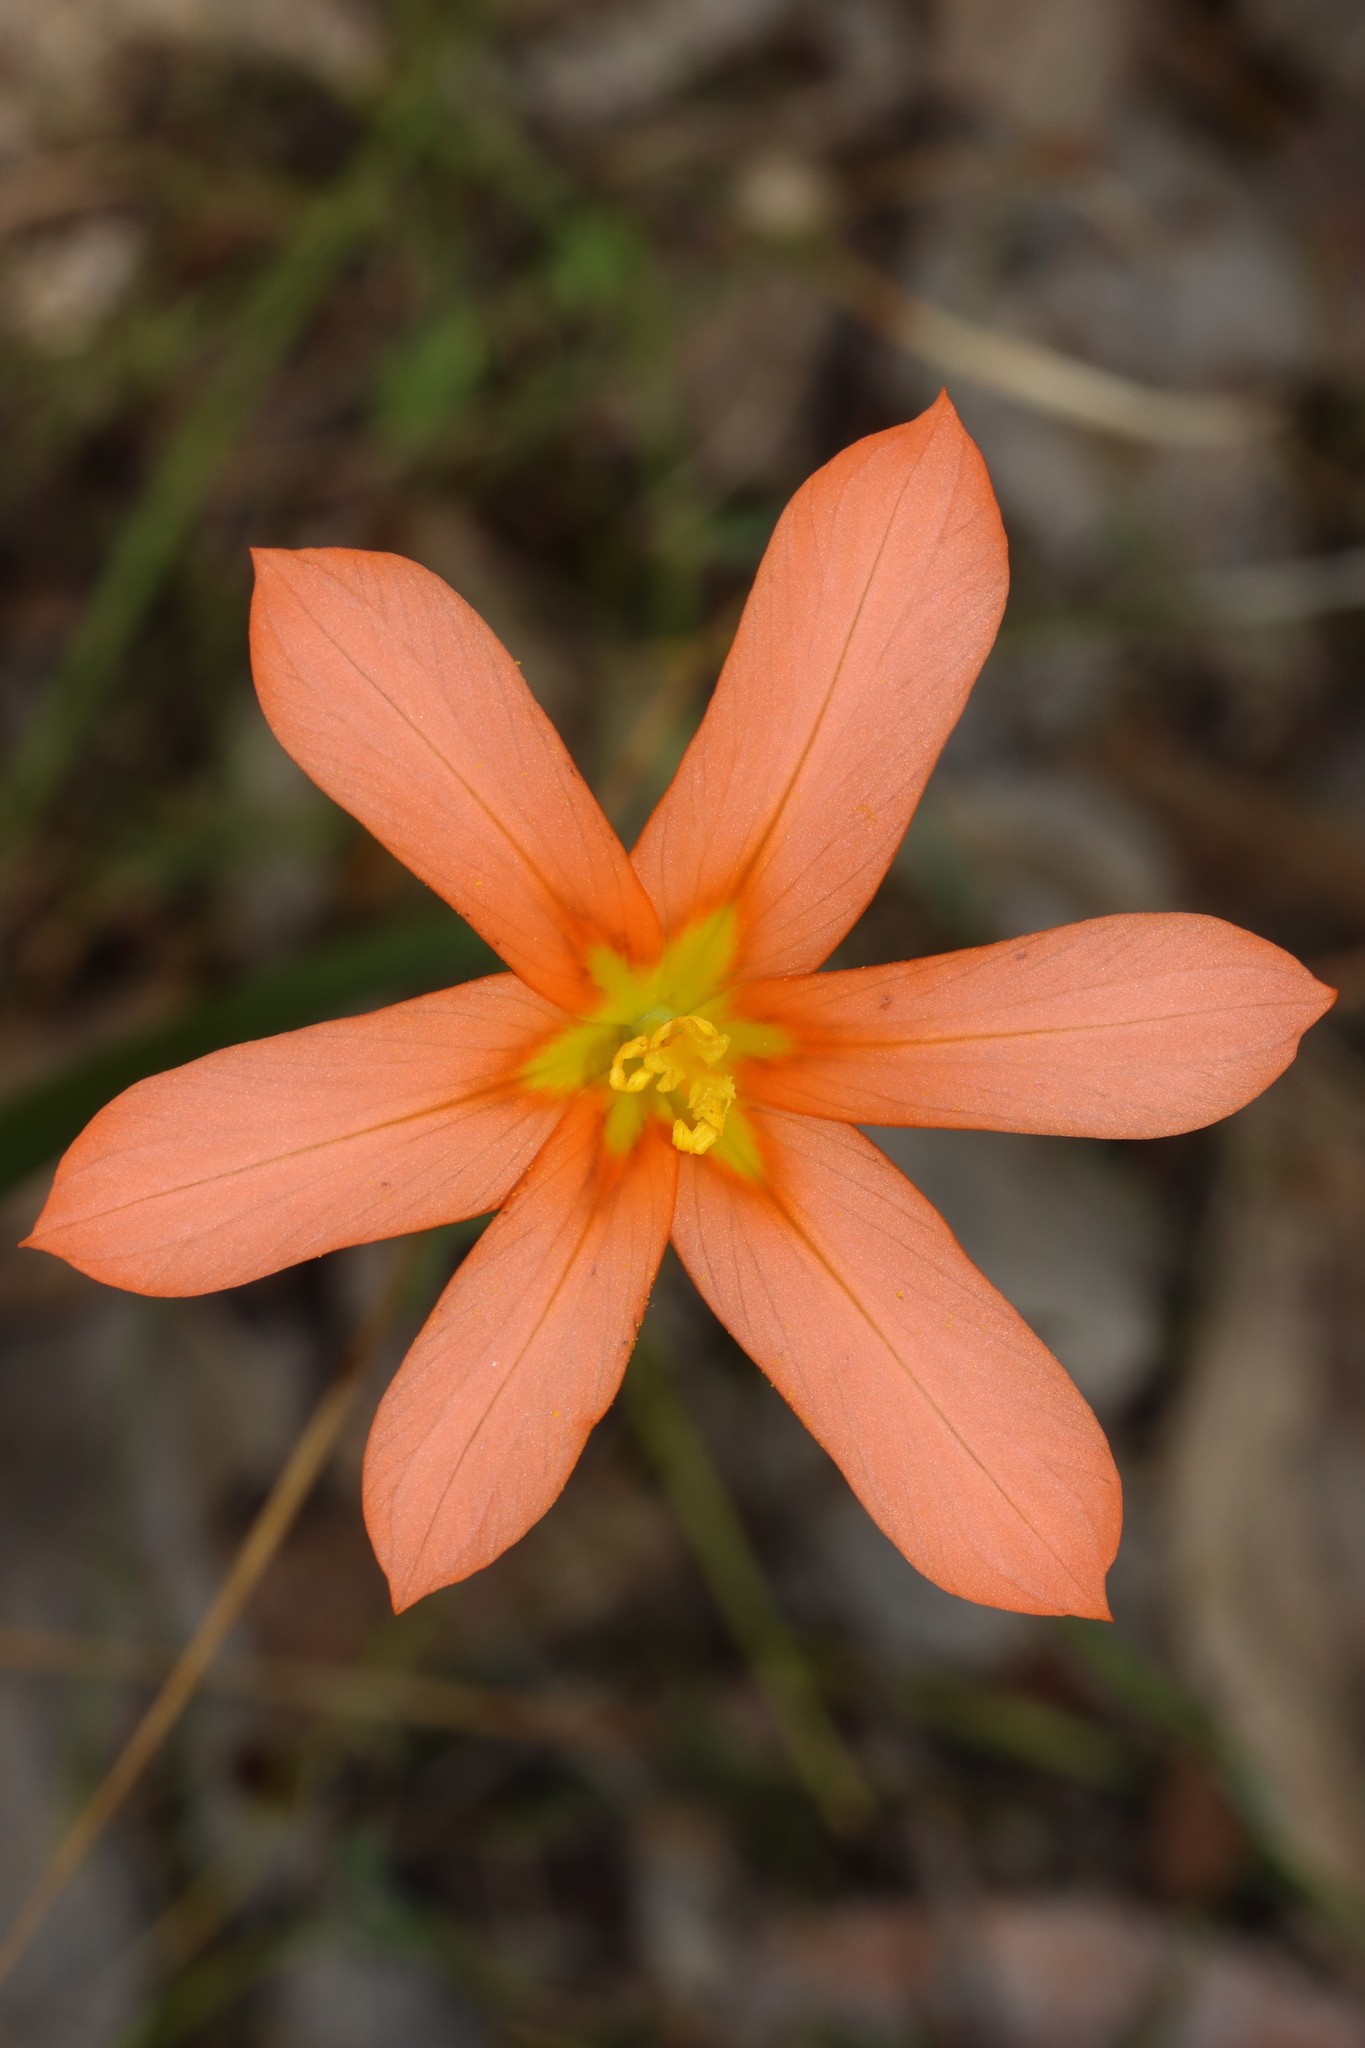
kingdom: Plantae
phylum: Tracheophyta
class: Liliopsida
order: Asparagales
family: Iridaceae
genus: Moraea
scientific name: Moraea miniata
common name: Two-leaf cape-tulip
